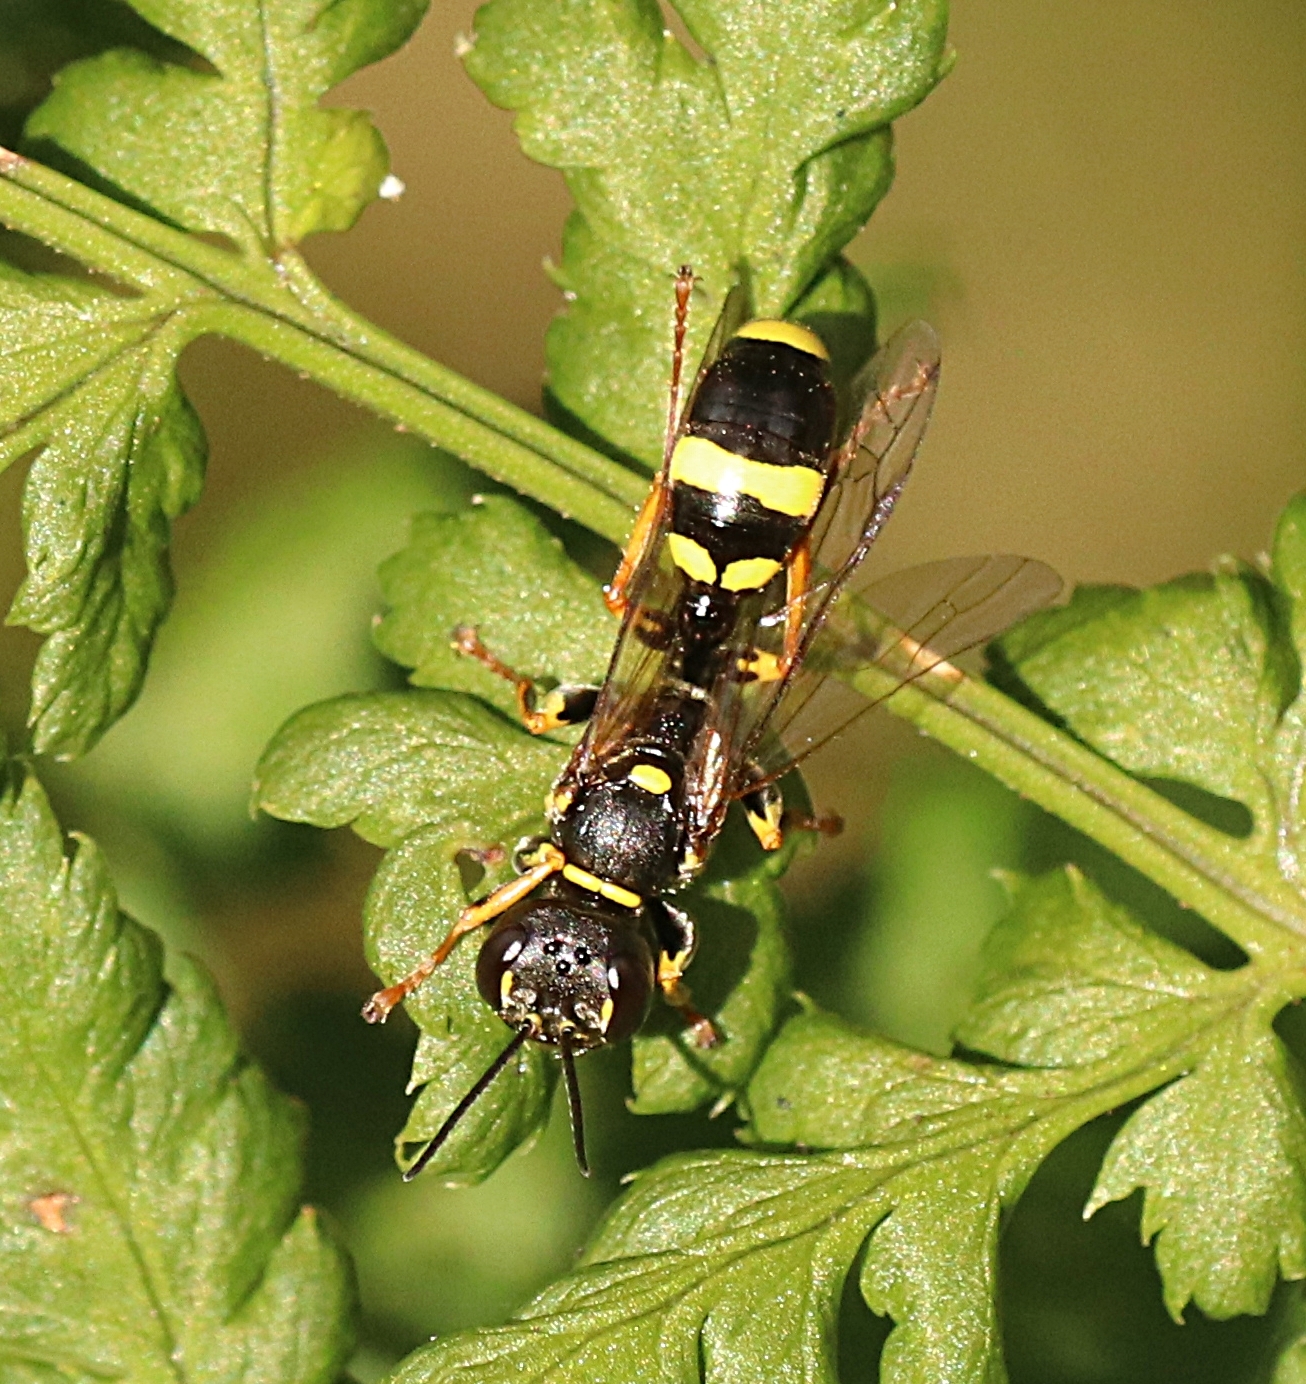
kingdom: Animalia
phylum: Arthropoda
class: Insecta
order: Hymenoptera
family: Crabronidae
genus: Mellinus
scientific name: Mellinus arvensis
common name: Field digger wasp
